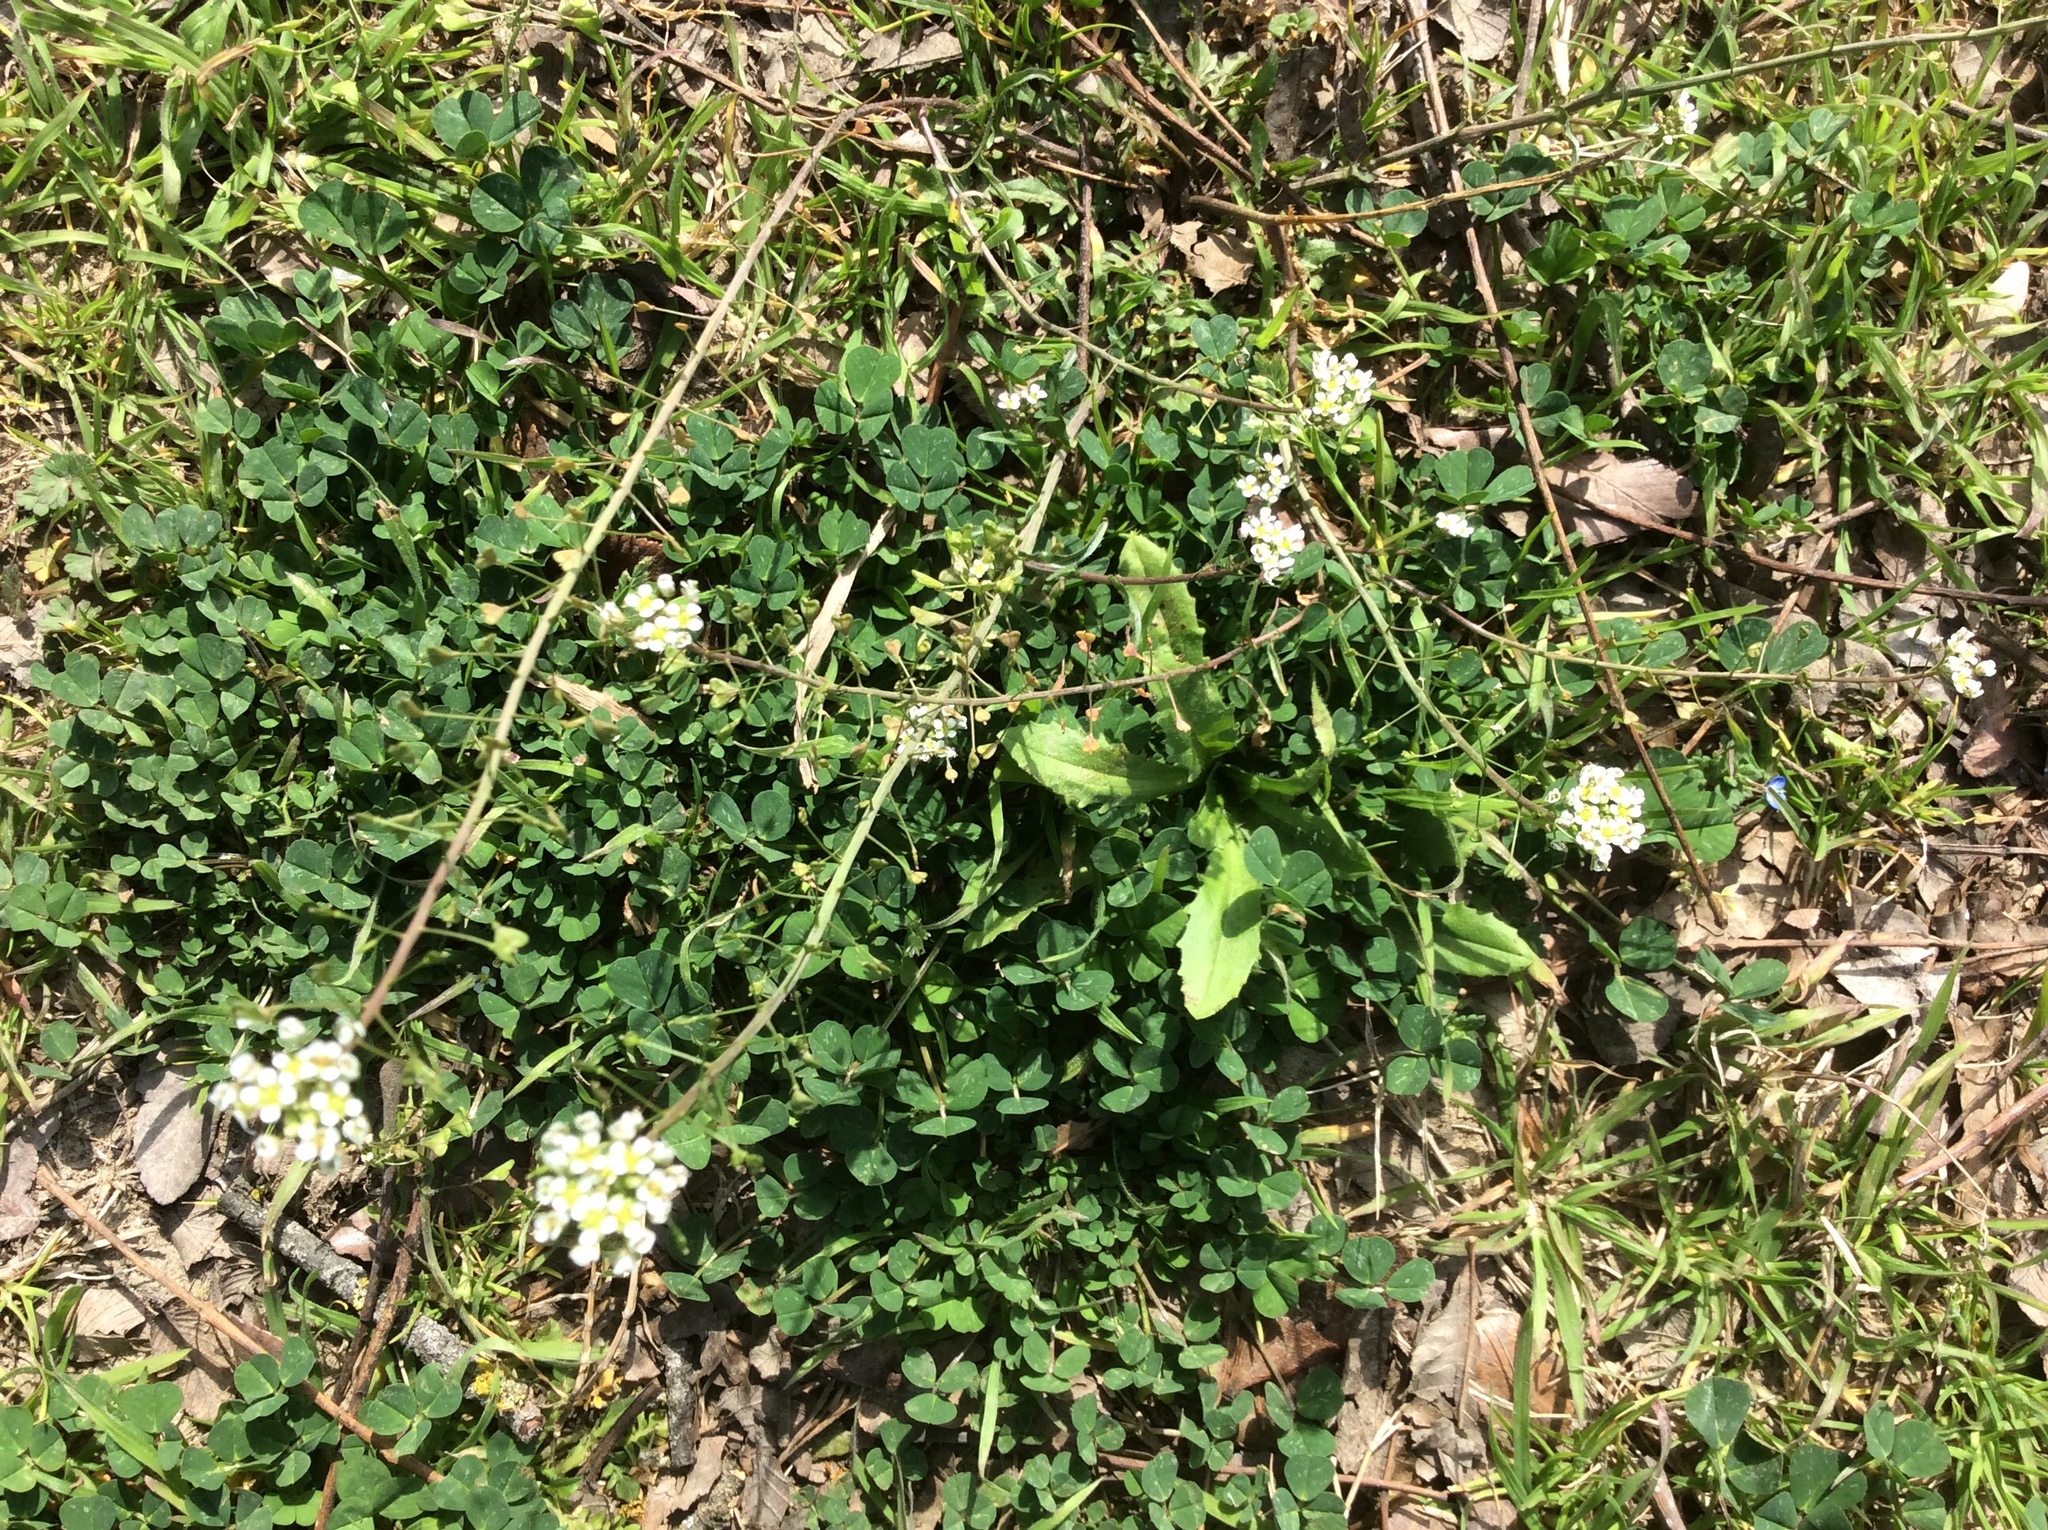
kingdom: Plantae
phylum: Tracheophyta
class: Magnoliopsida
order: Brassicales
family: Brassicaceae
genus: Capsella
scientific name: Capsella bursa-pastoris
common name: Shepherd's purse
